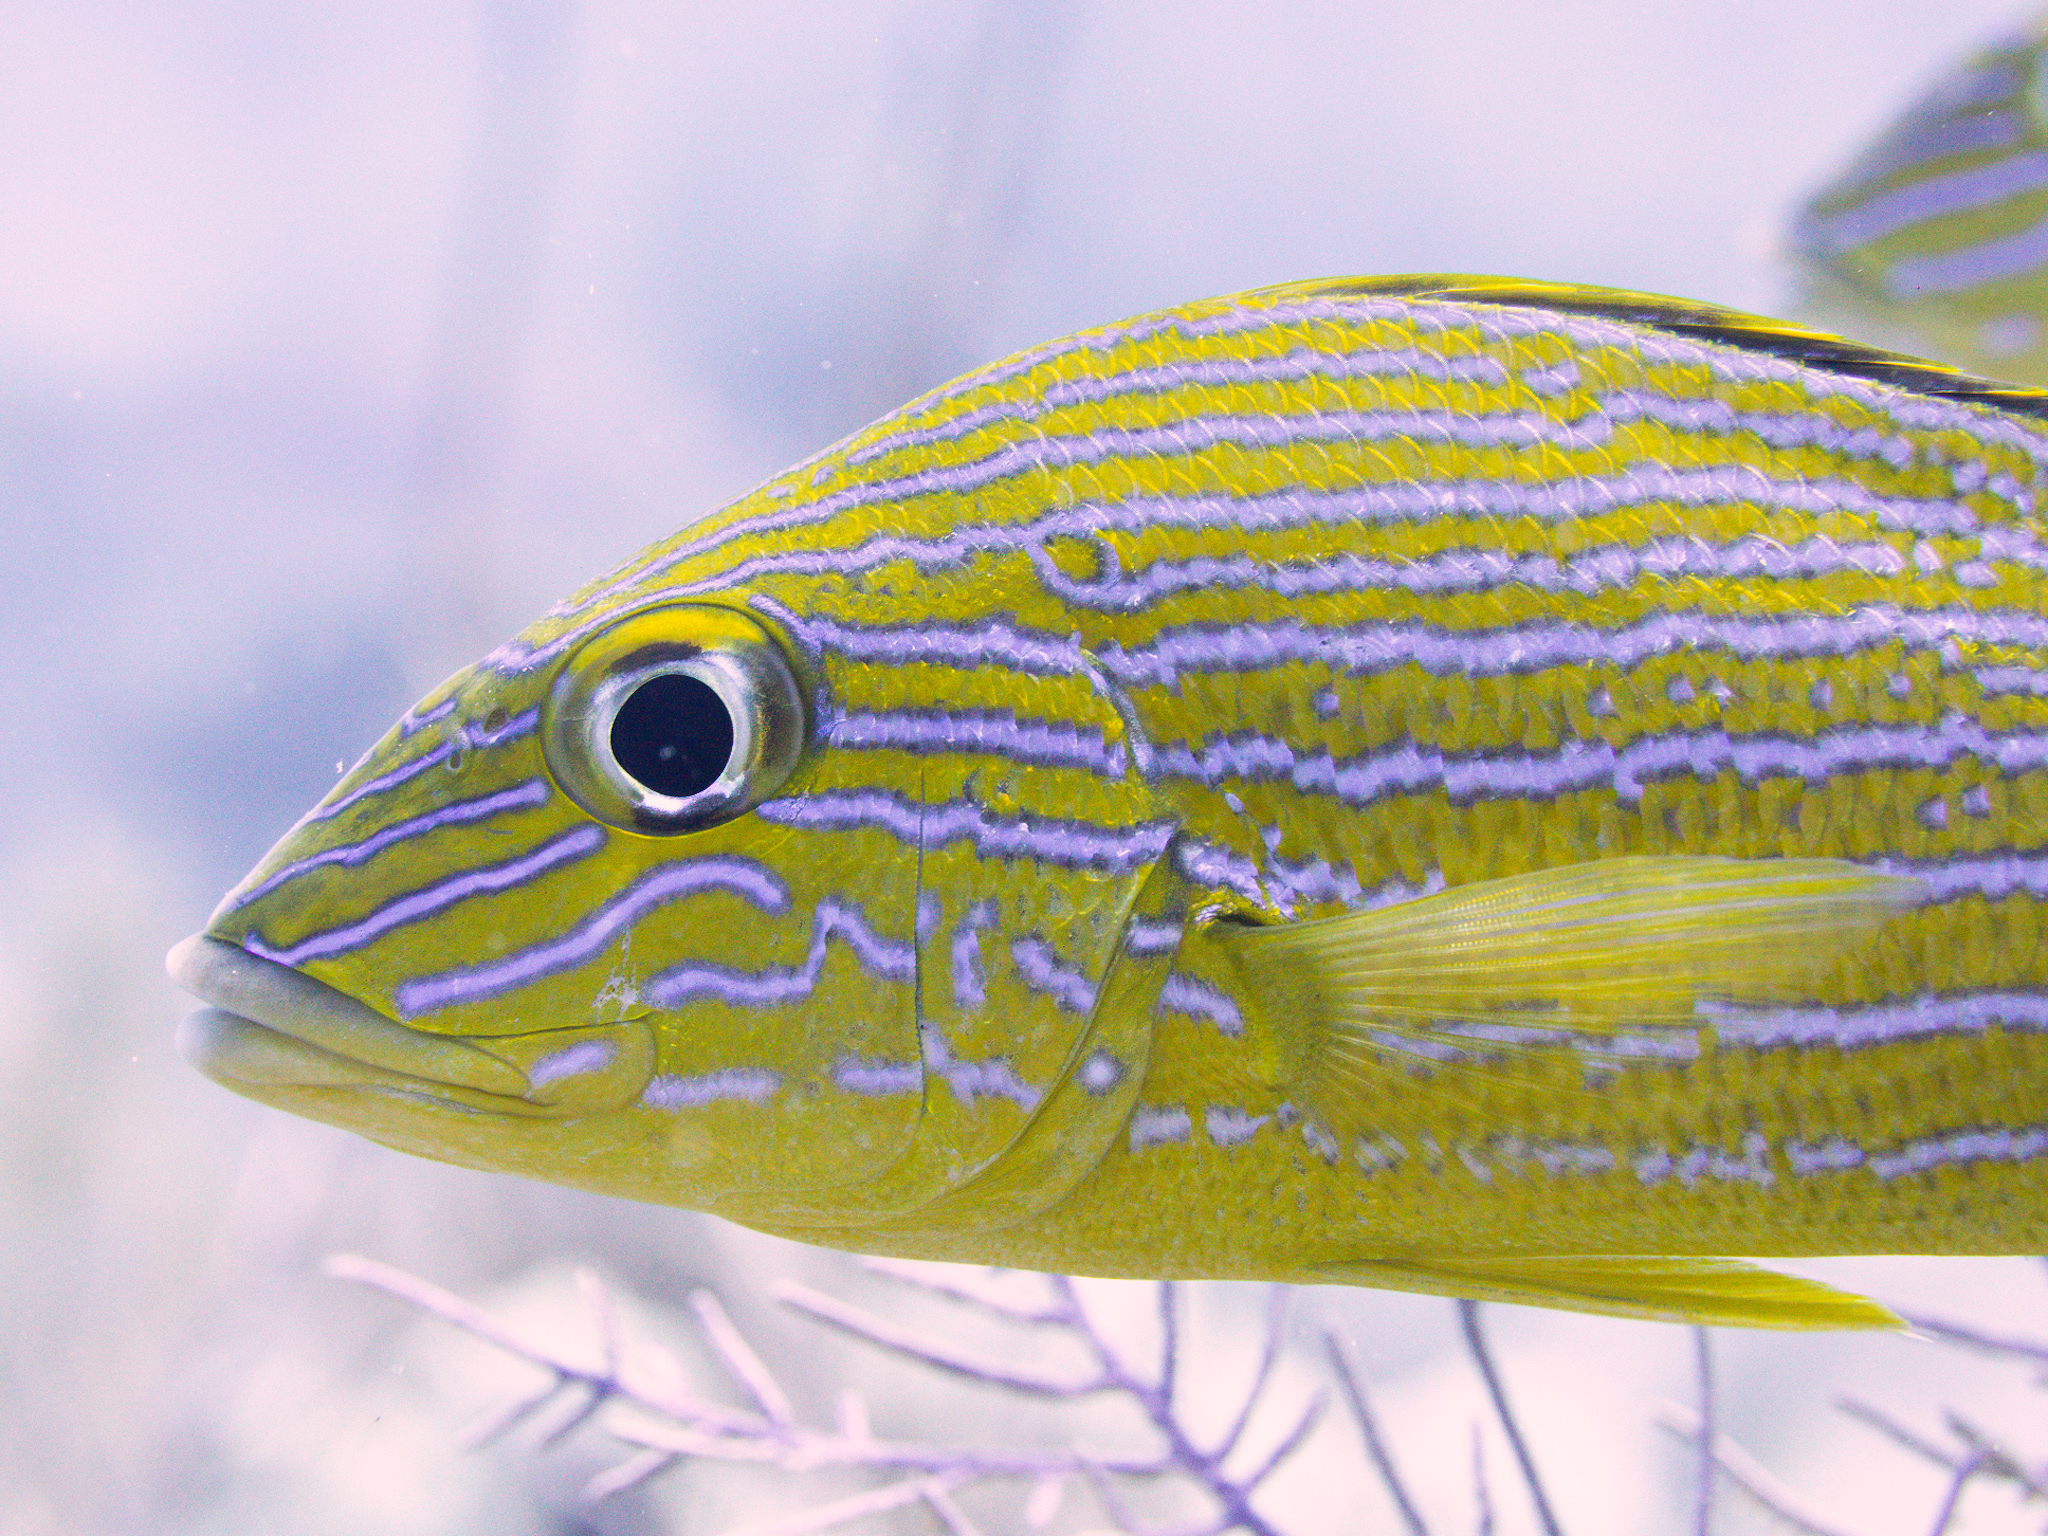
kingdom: Animalia
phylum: Chordata
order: Perciformes
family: Haemulidae
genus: Haemulon
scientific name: Haemulon sciurus
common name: Bluestriped grunt
